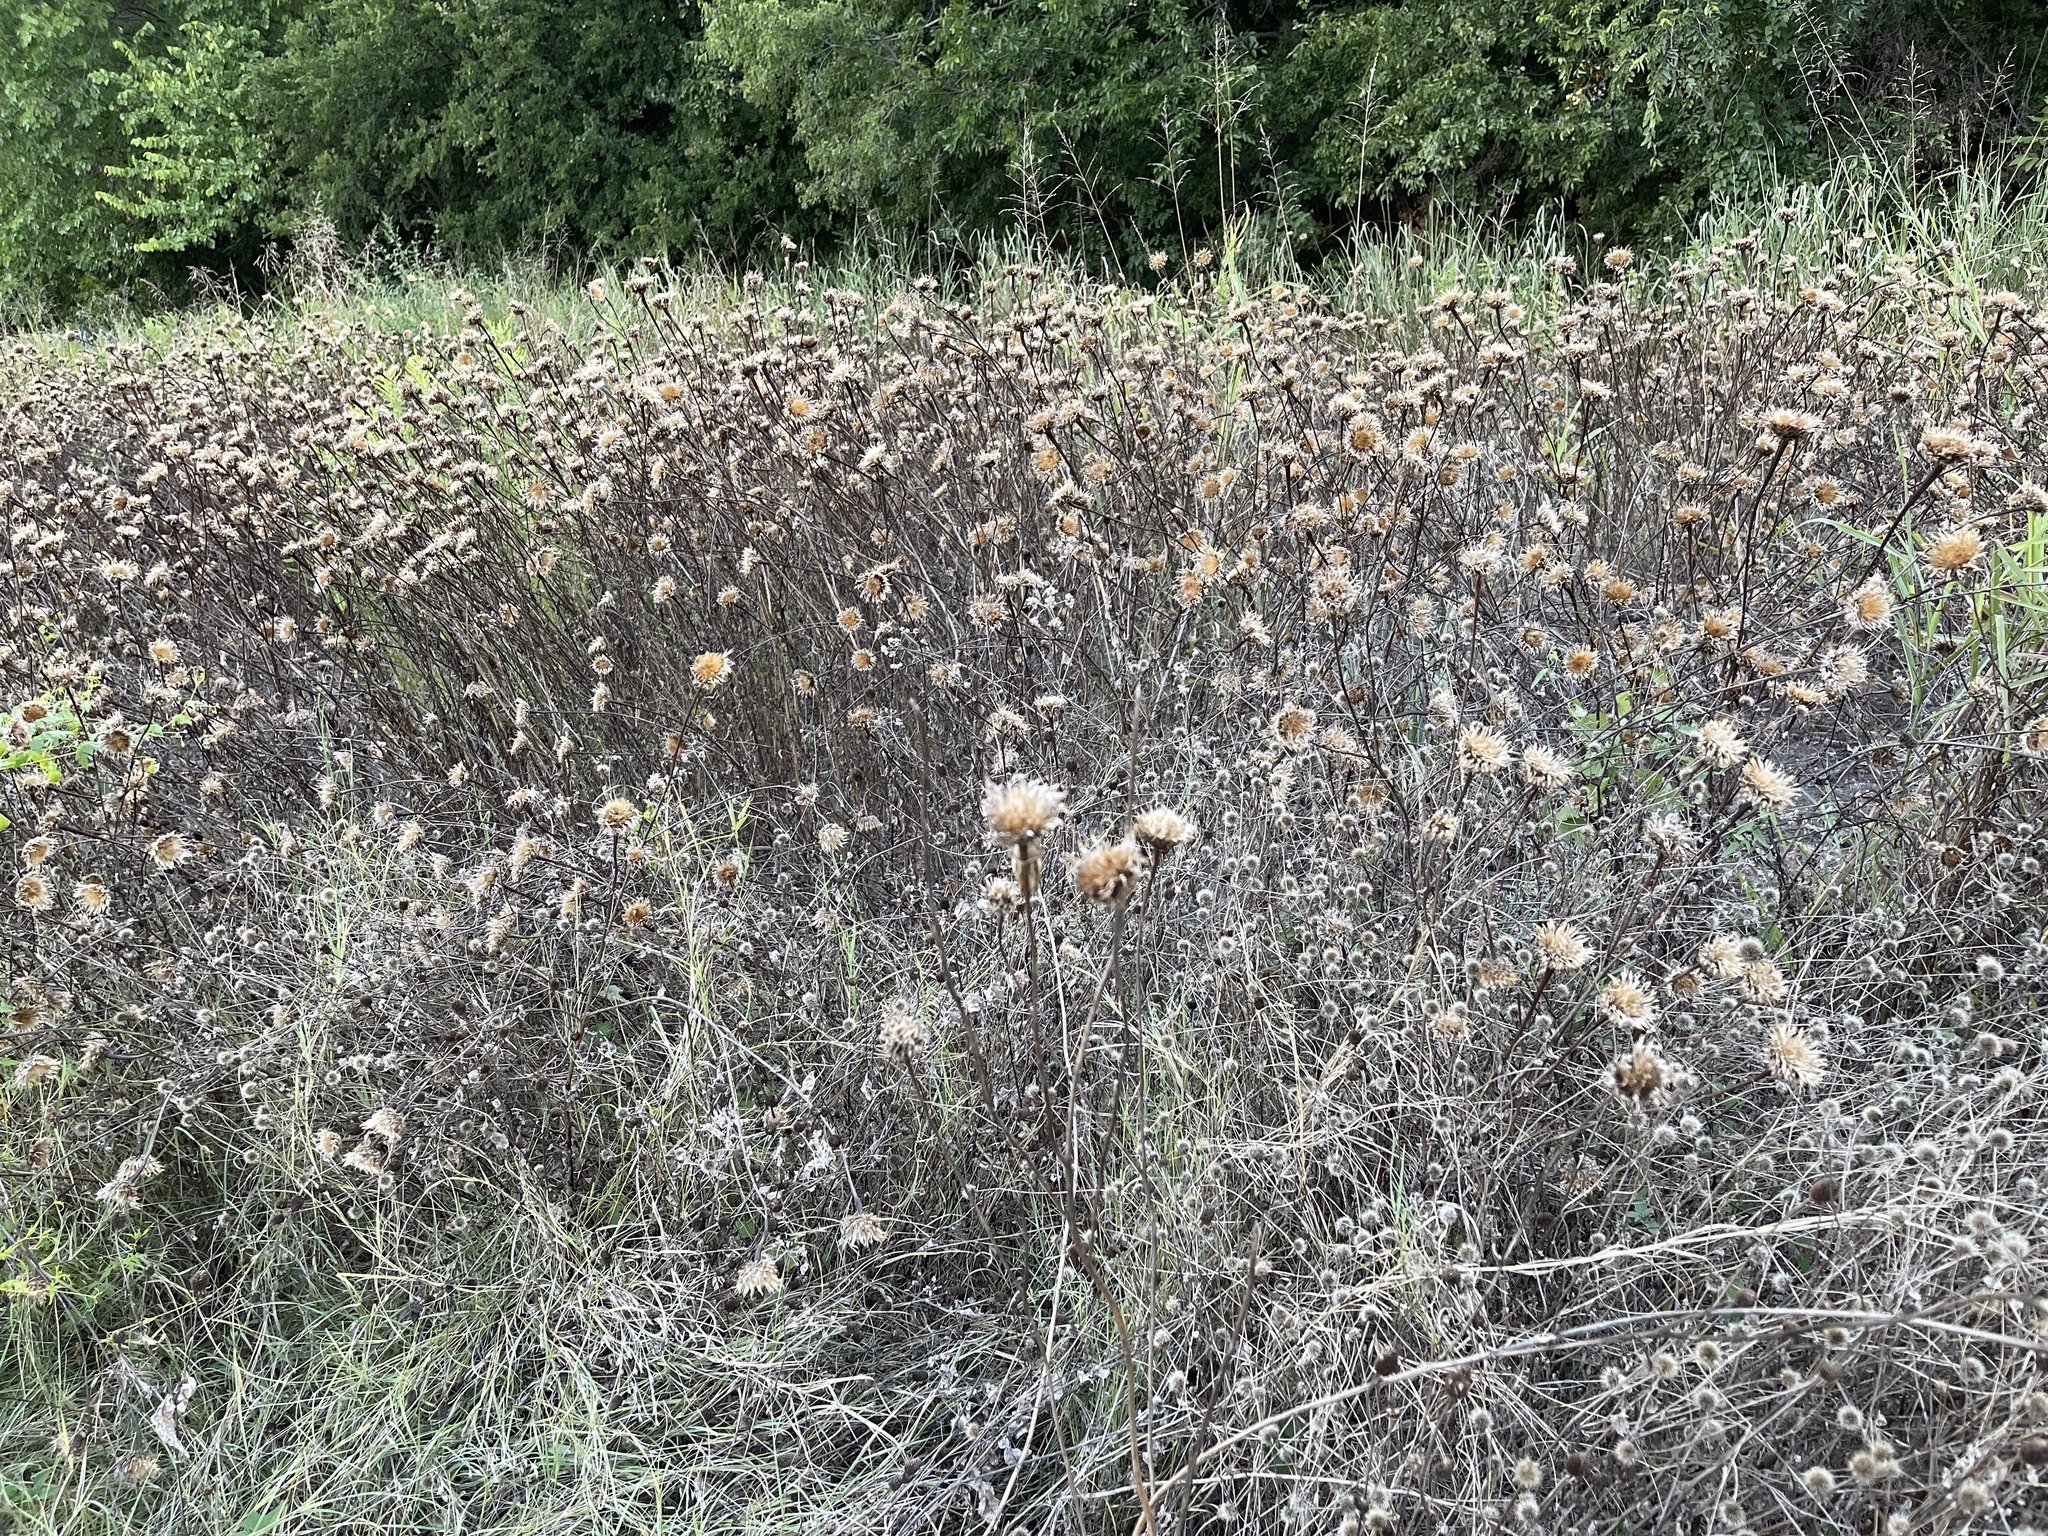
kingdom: Plantae
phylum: Tracheophyta
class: Magnoliopsida
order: Asterales
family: Asteraceae
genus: Plectocephalus
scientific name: Plectocephalus americanus
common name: American basket-flower
